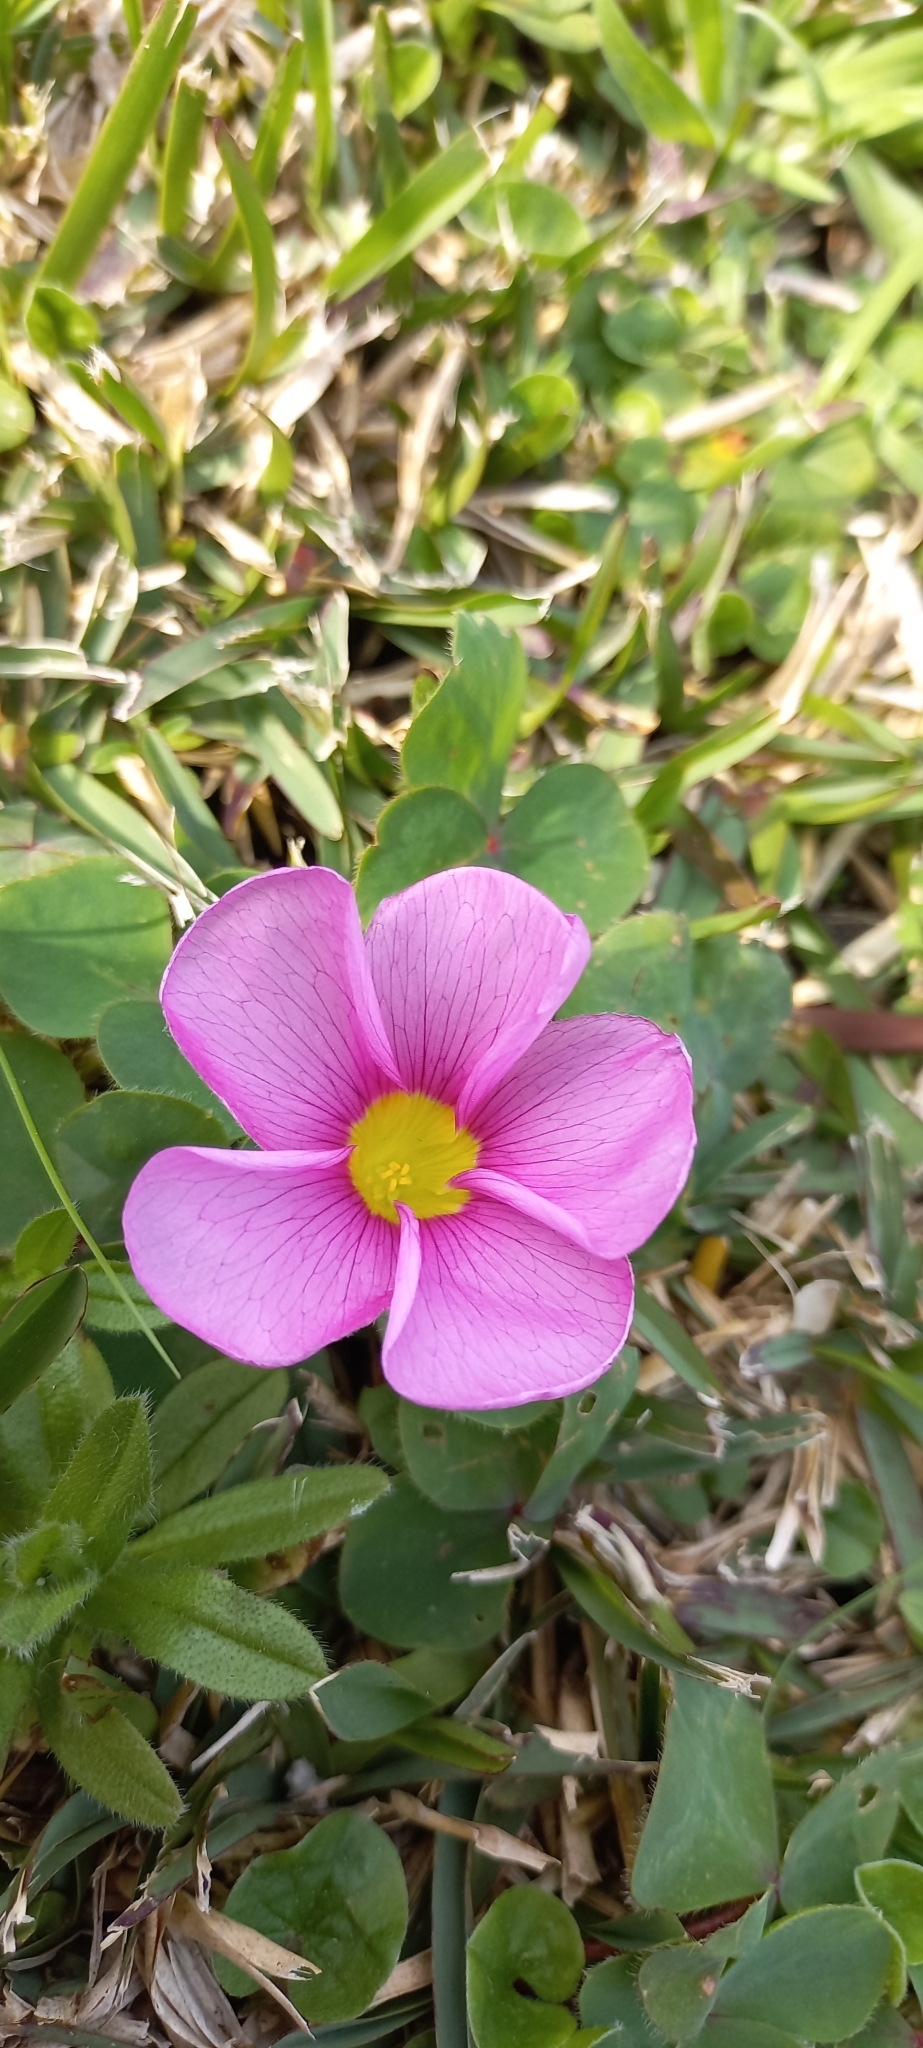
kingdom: Plantae
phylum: Tracheophyta
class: Magnoliopsida
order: Oxalidales
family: Oxalidaceae
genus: Oxalis
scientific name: Oxalis purpurea
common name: Purple woodsorrel
